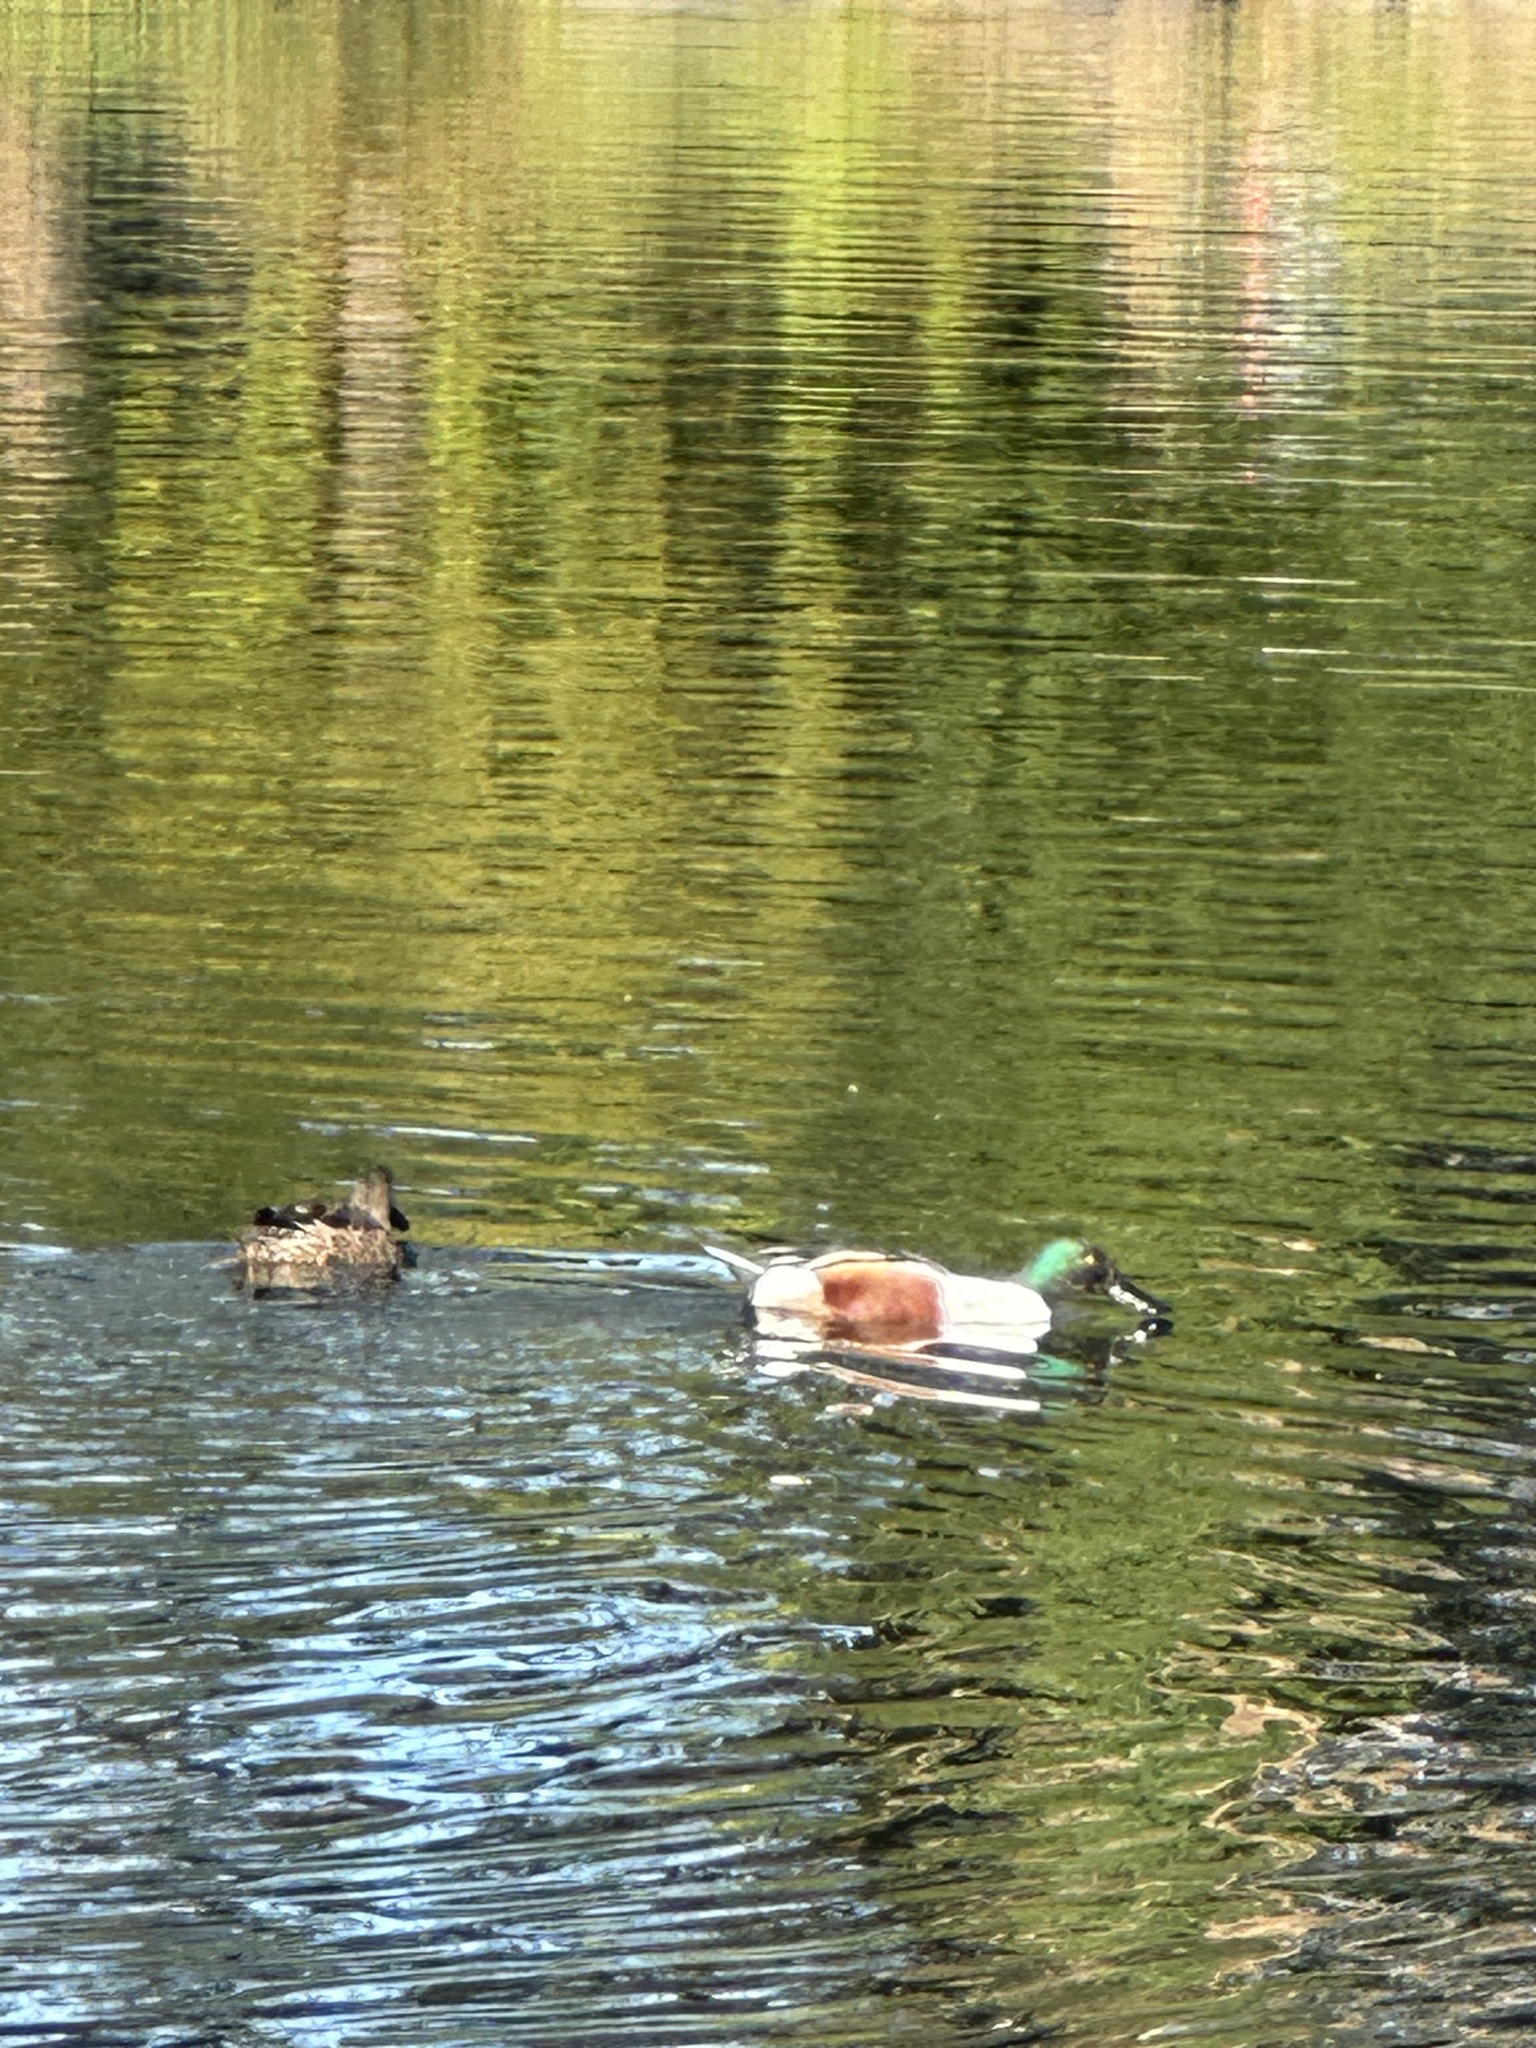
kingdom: Animalia
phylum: Chordata
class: Aves
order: Anseriformes
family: Anatidae
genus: Spatula
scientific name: Spatula clypeata
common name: Northern shoveler
